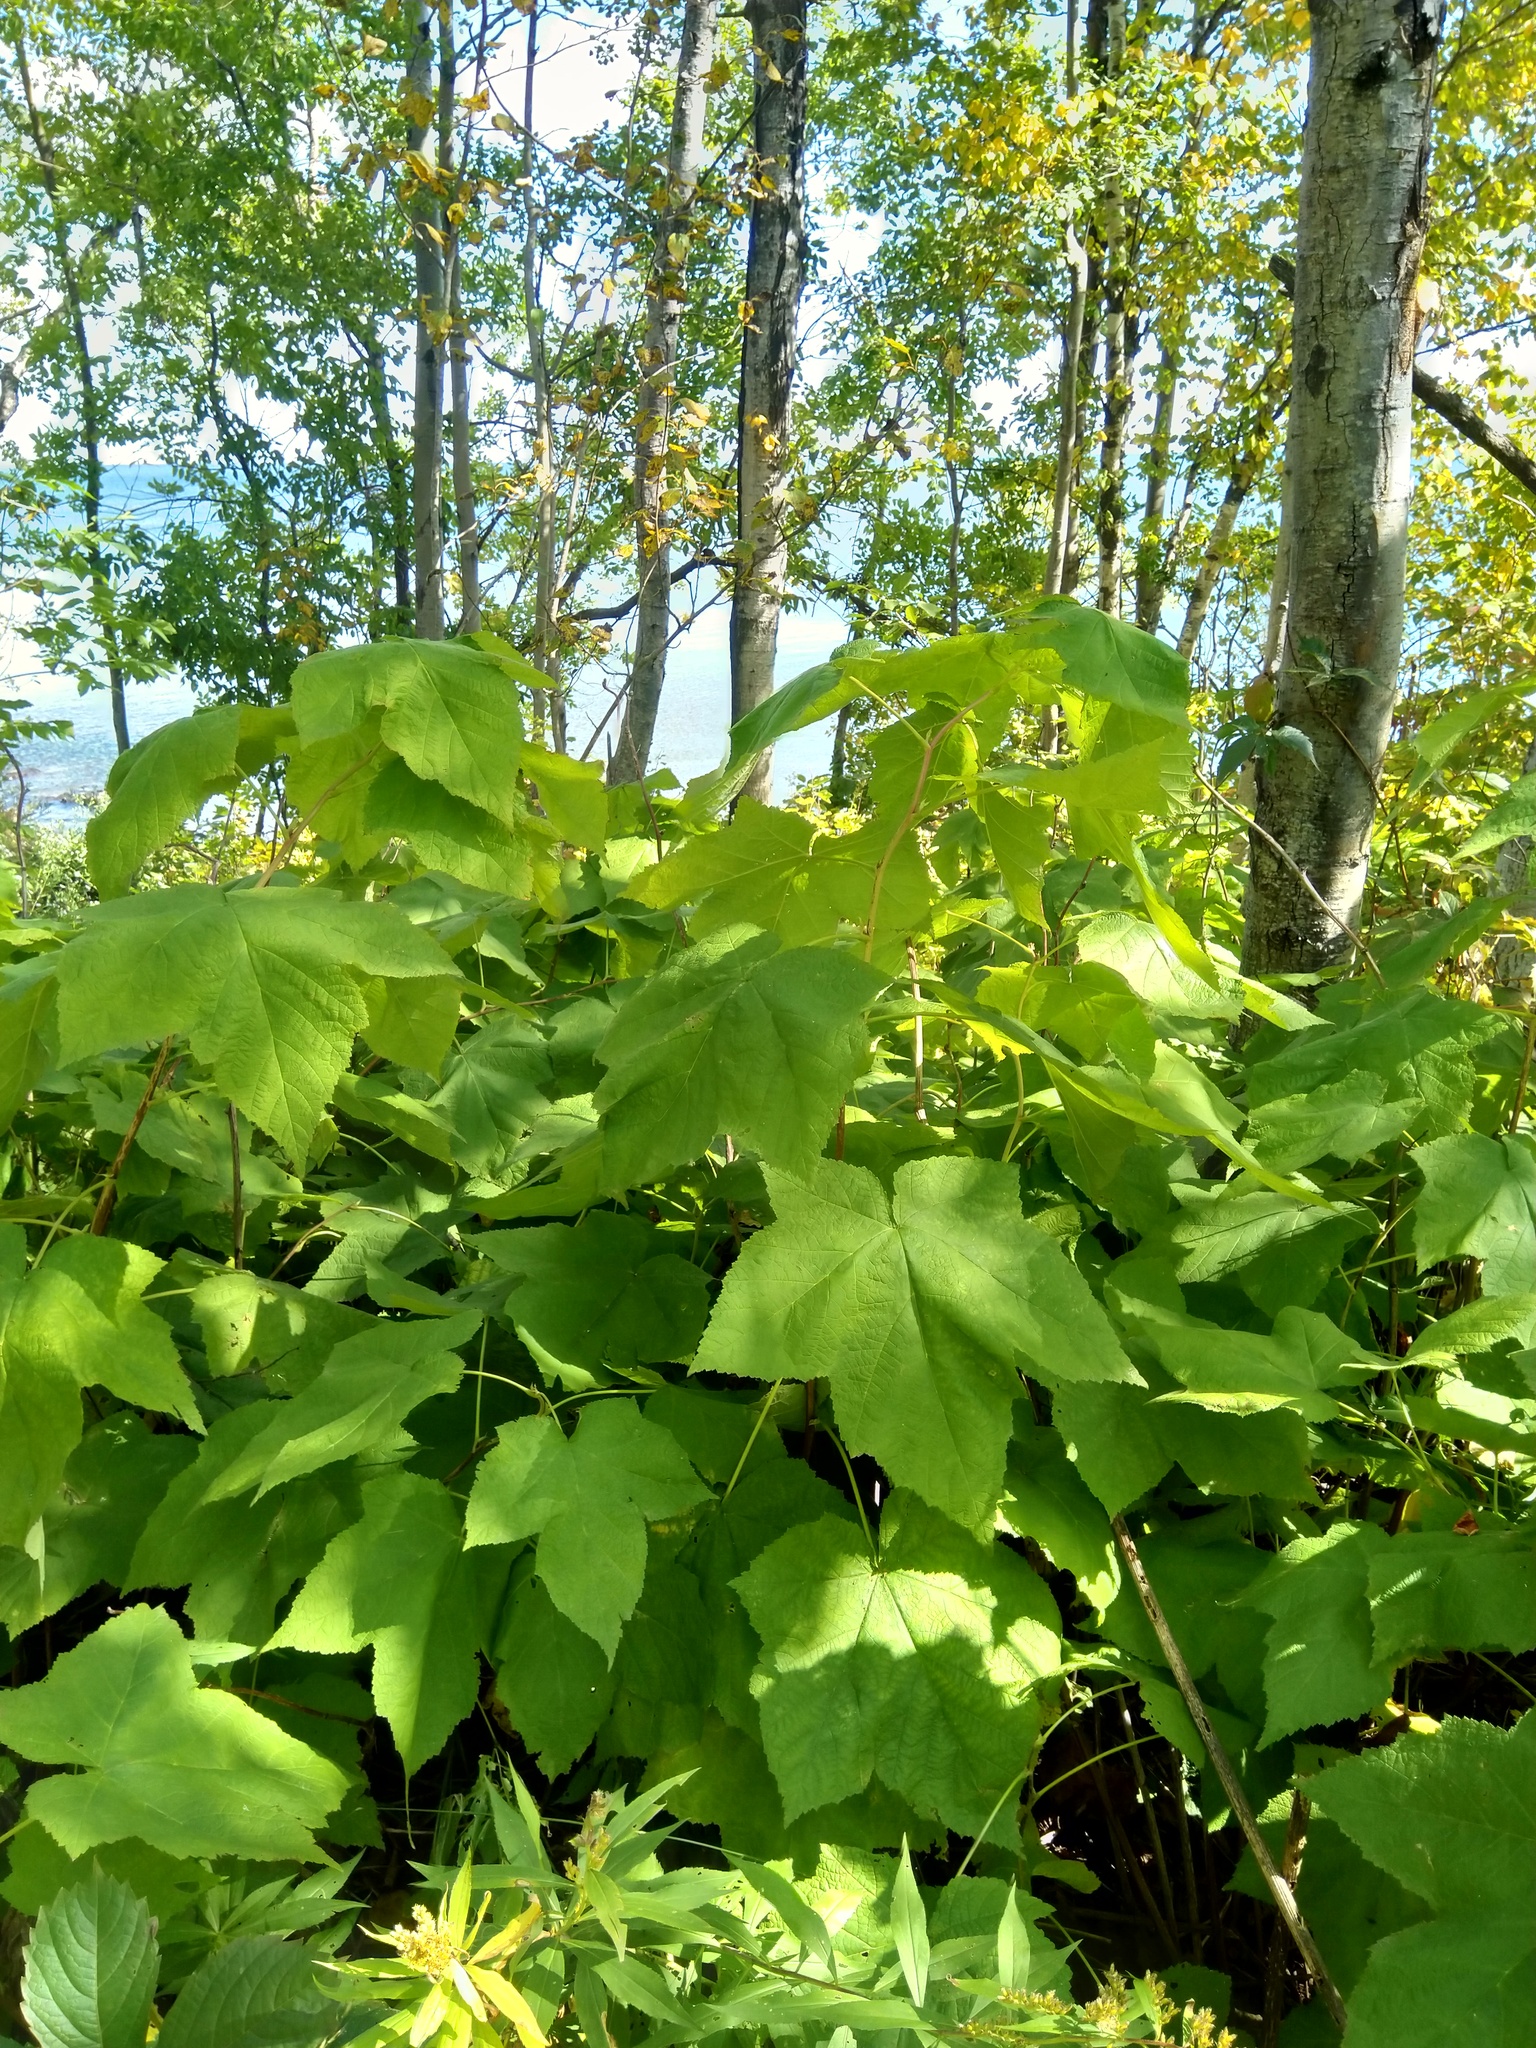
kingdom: Plantae
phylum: Tracheophyta
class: Magnoliopsida
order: Rosales
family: Rosaceae
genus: Rubus
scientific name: Rubus parviflorus
